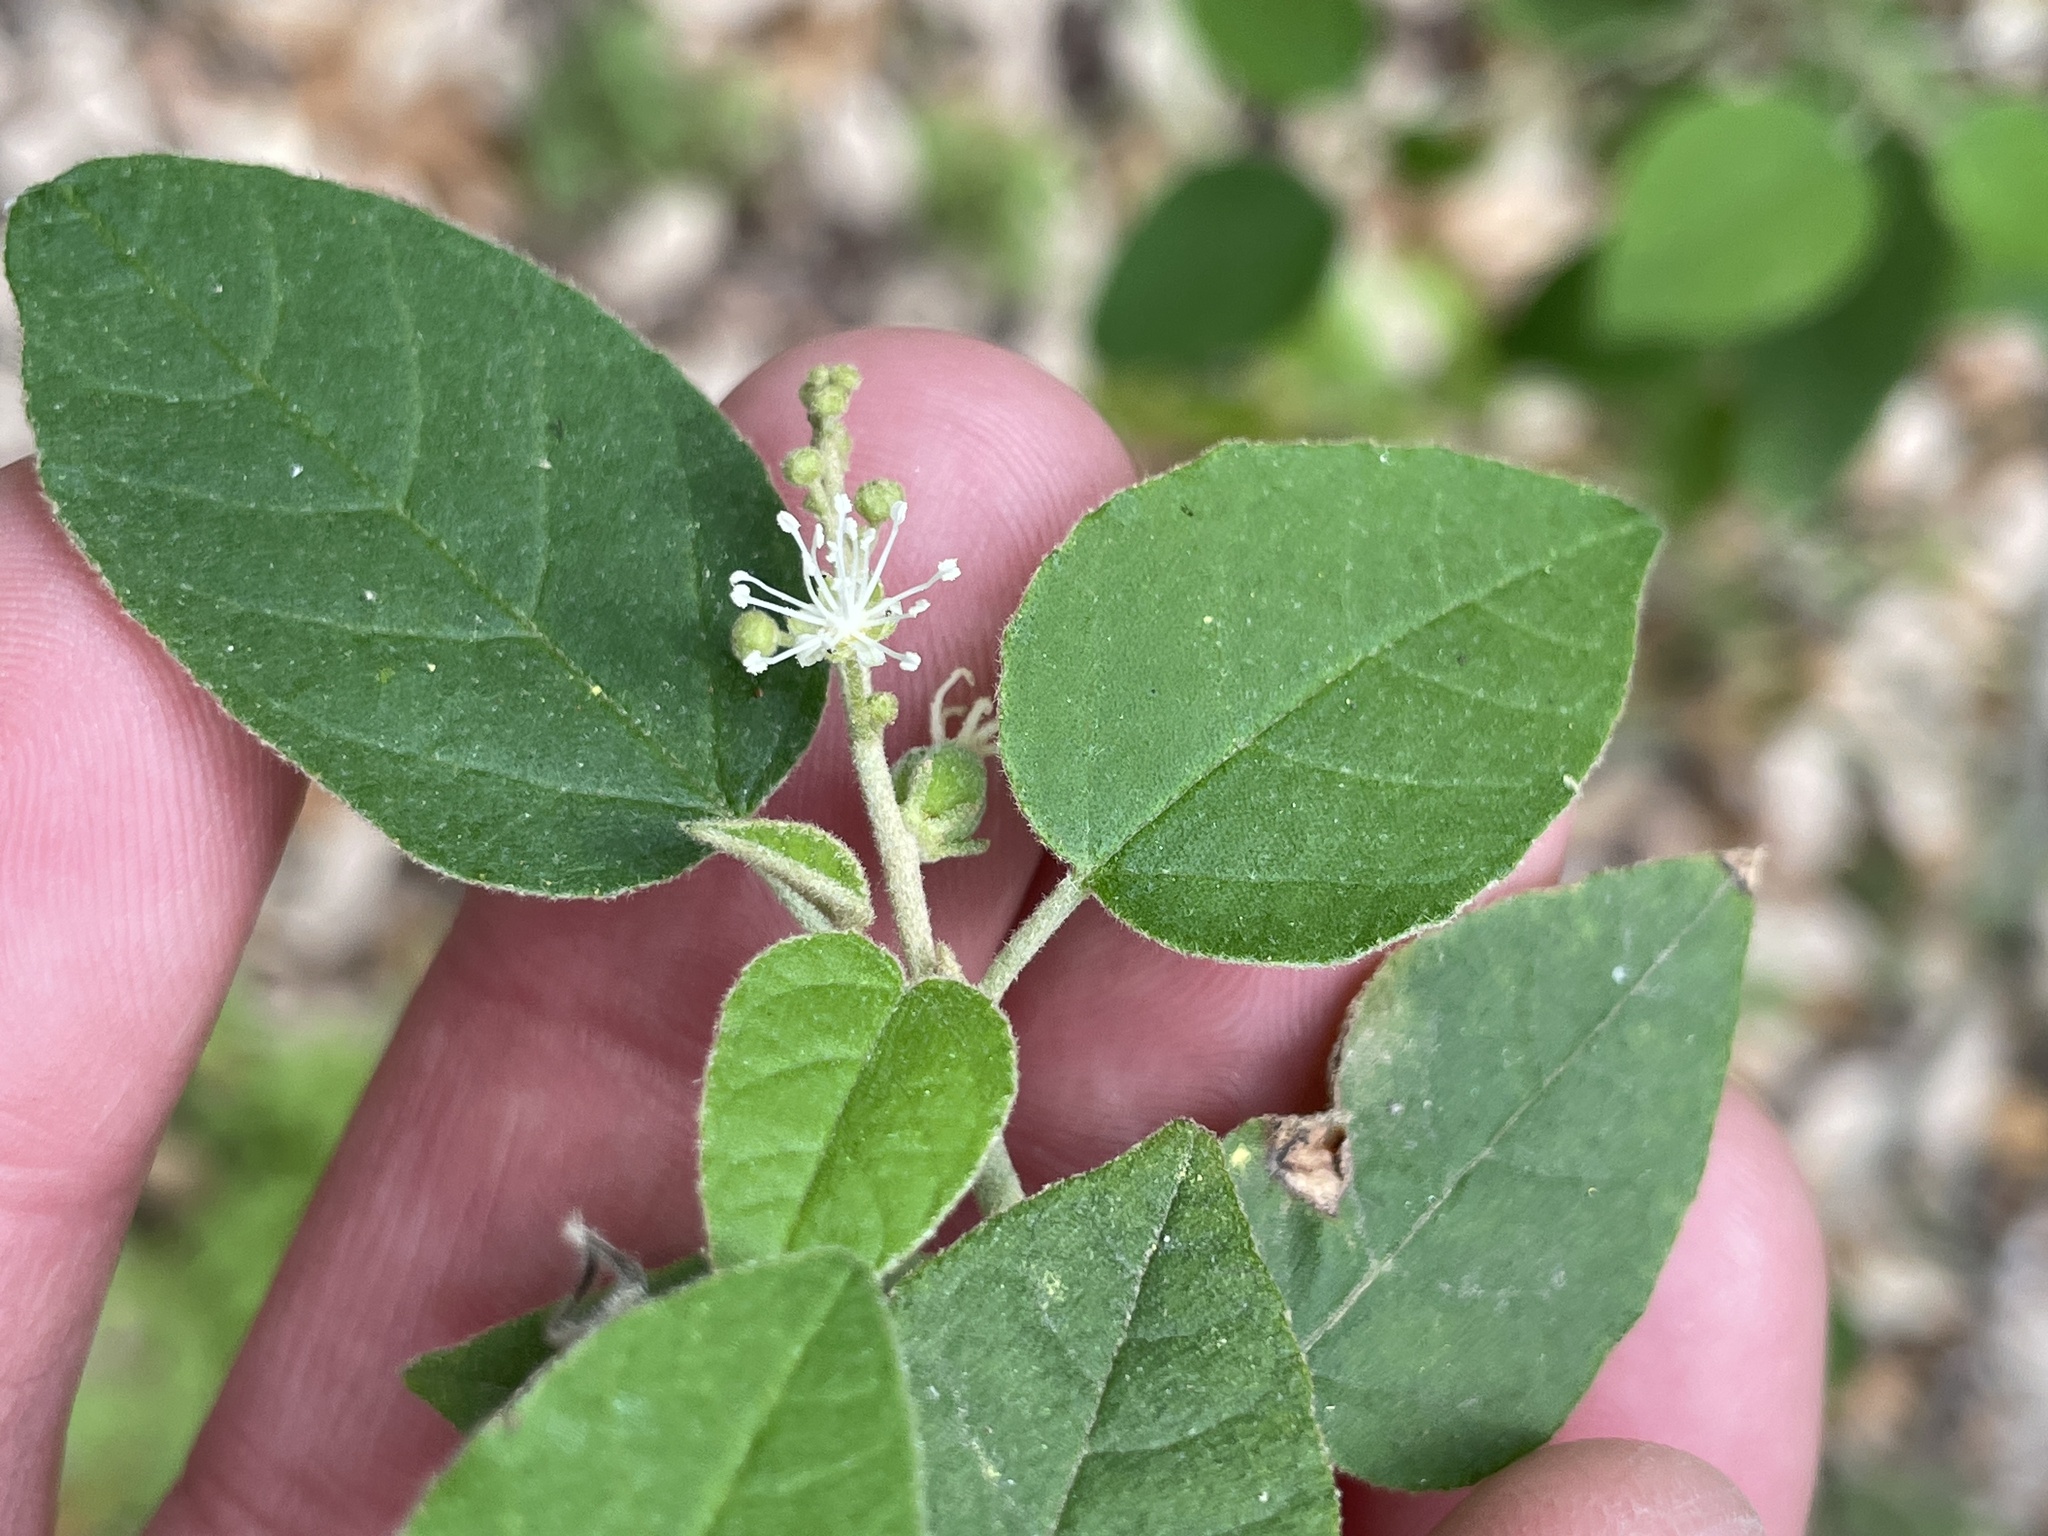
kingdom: Plantae
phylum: Tracheophyta
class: Magnoliopsida
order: Malpighiales
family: Euphorbiaceae
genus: Croton
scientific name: Croton fruticulosus
